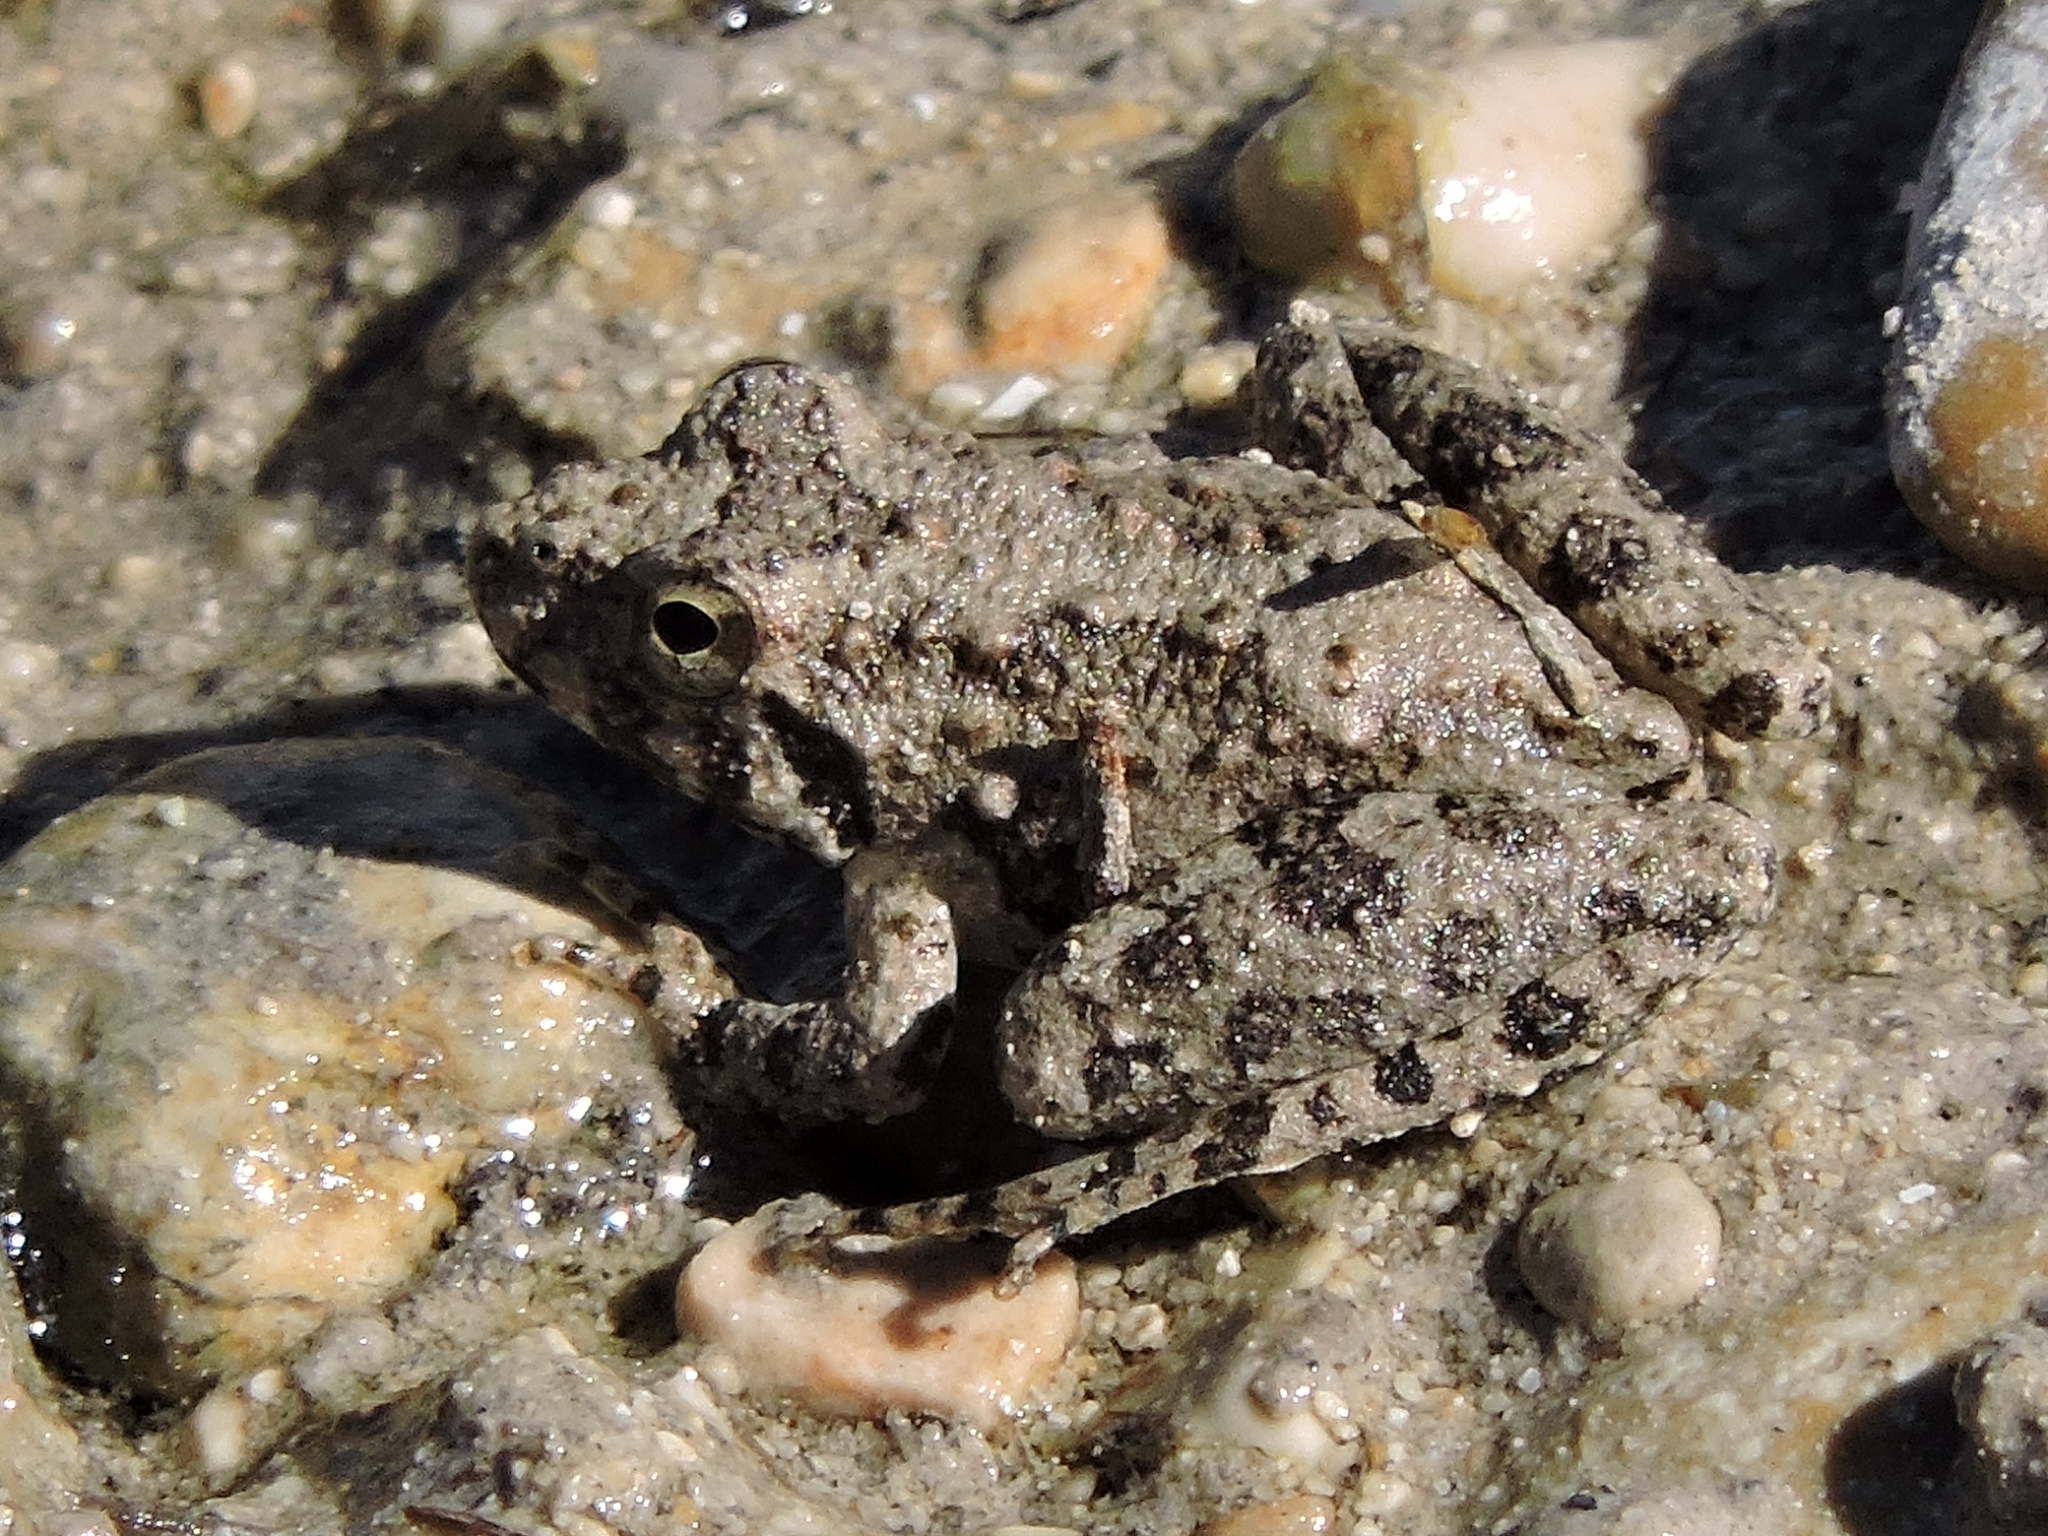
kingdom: Animalia
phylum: Chordata
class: Amphibia
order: Anura
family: Hylidae
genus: Acris
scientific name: Acris blanchardi
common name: Blanchard's cricket frog
